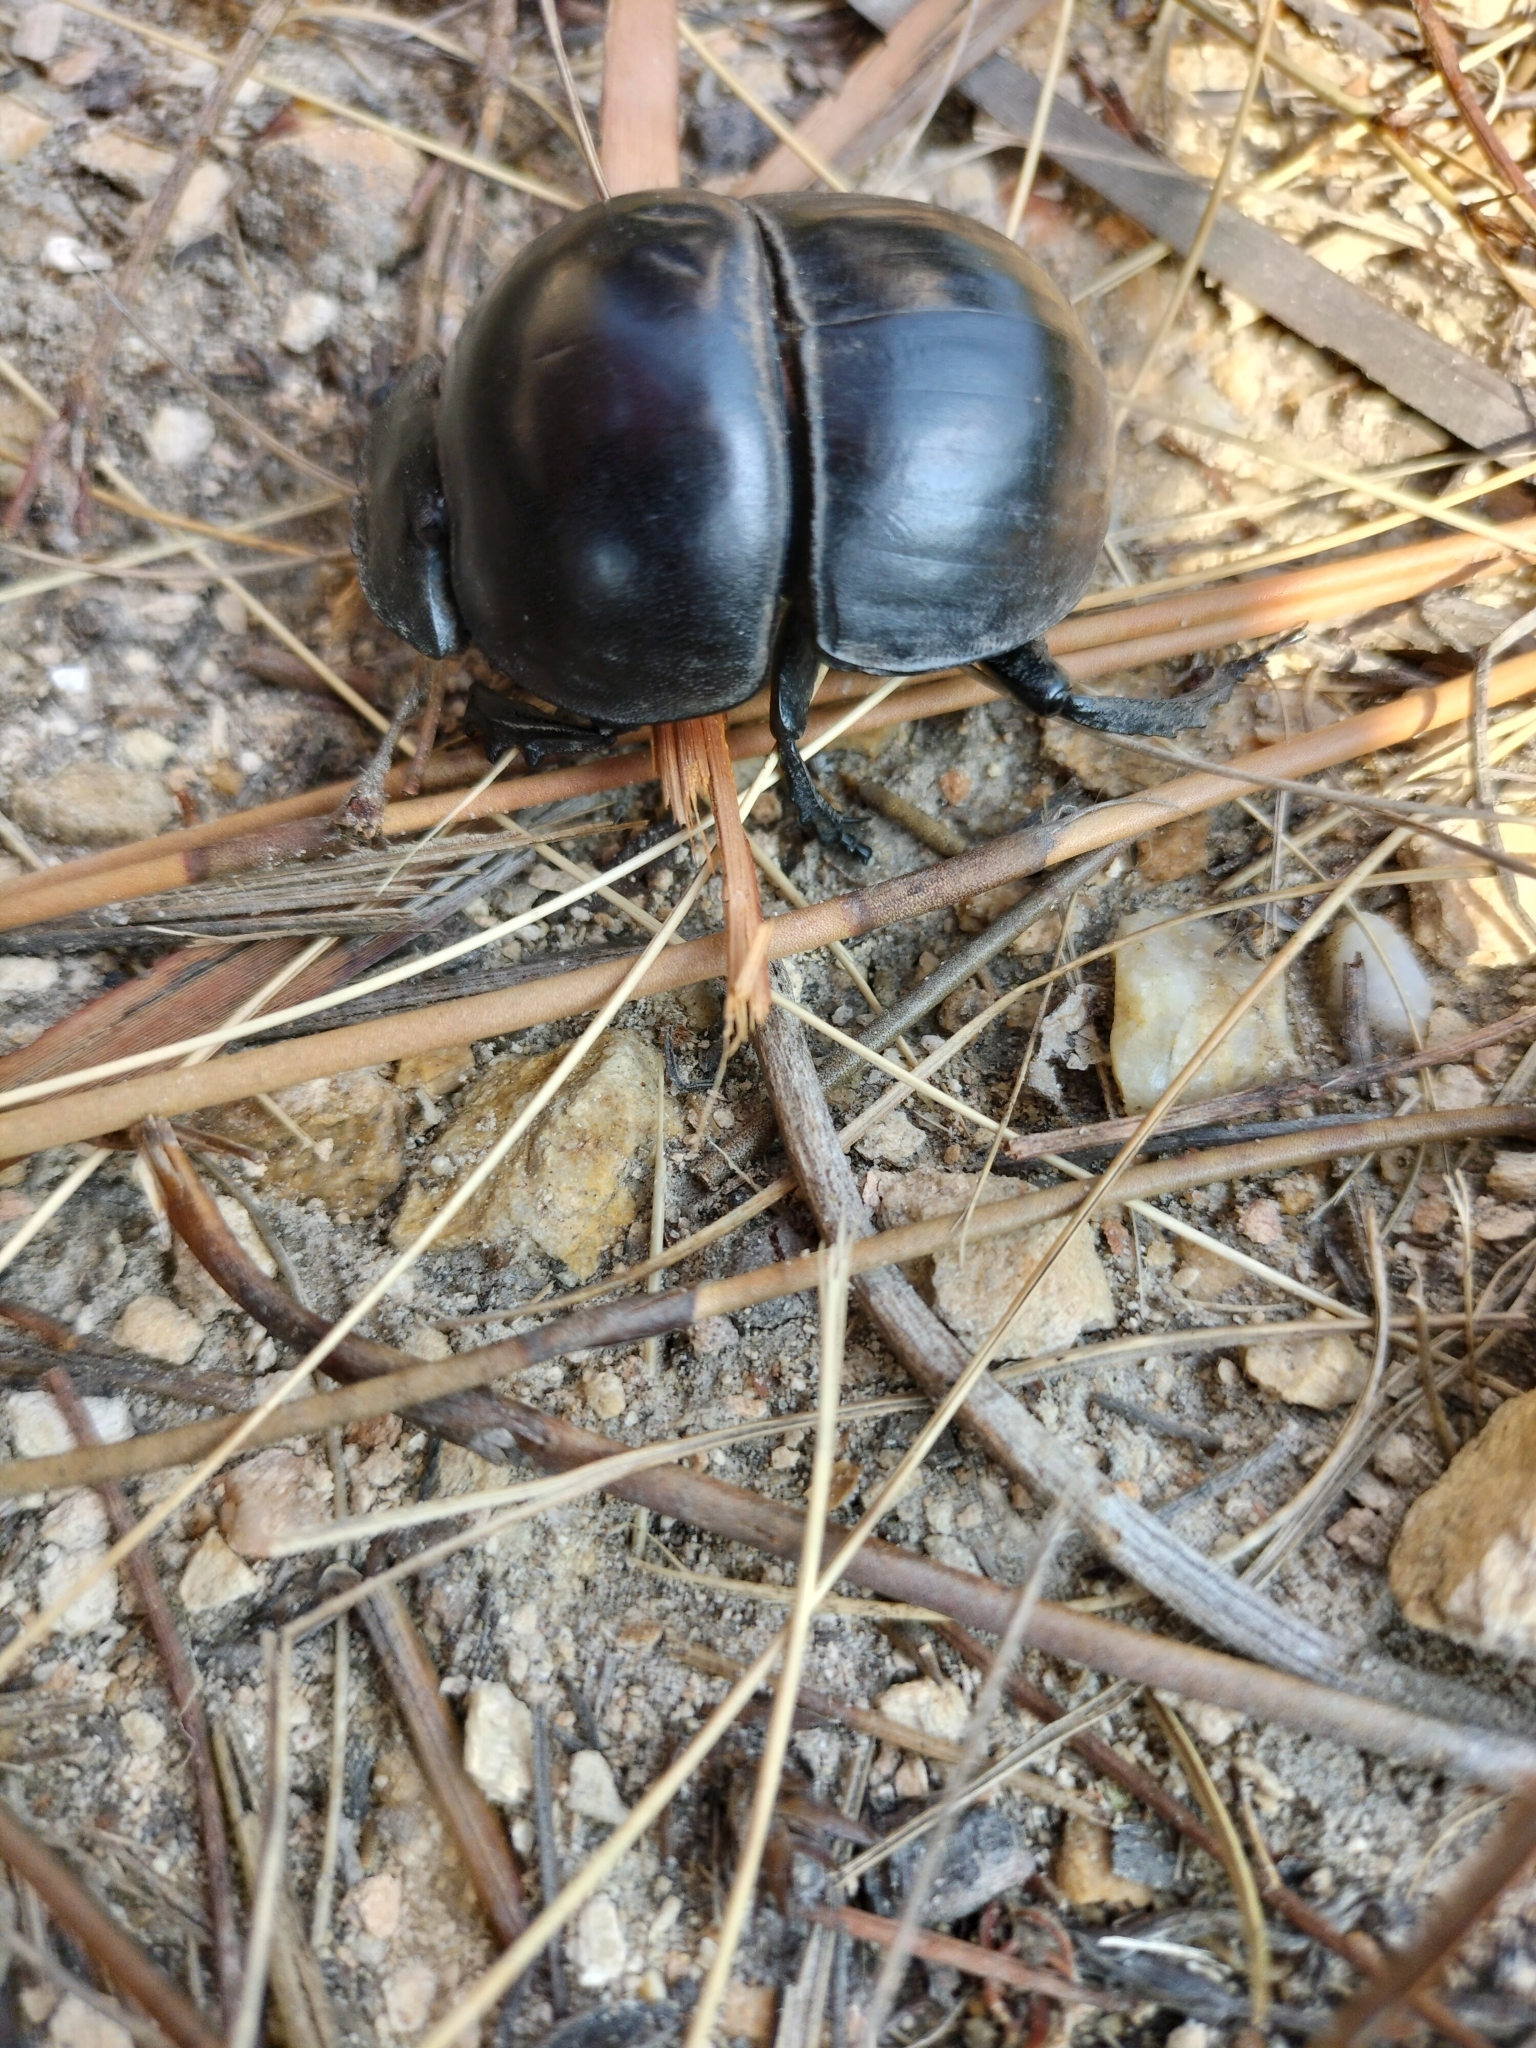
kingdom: Animalia
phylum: Arthropoda
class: Insecta
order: Coleoptera
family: Scarabaeidae
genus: Circellium
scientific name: Circellium bacchus
